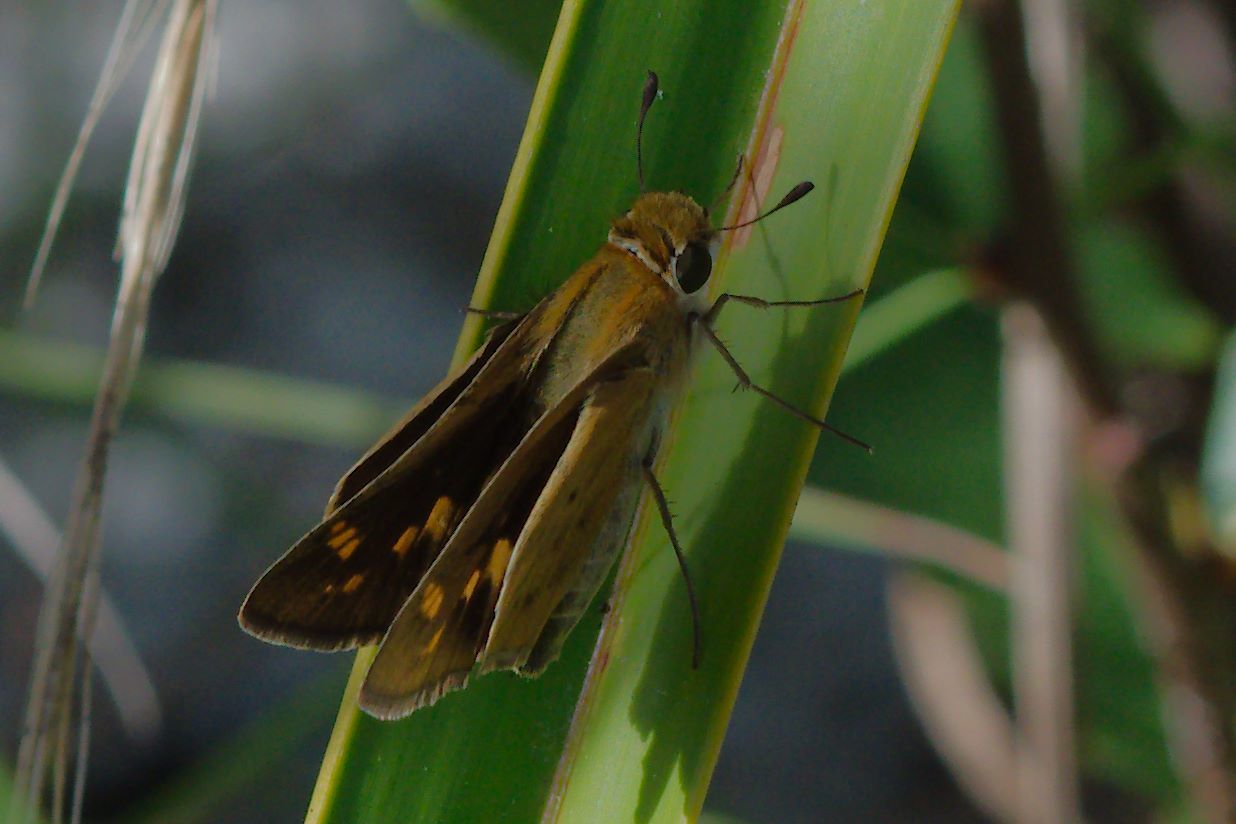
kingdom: Animalia
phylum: Arthropoda
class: Insecta
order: Lepidoptera
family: Hesperiidae
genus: Hylephila
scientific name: Hylephila phyleus
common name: Fiery skipper
